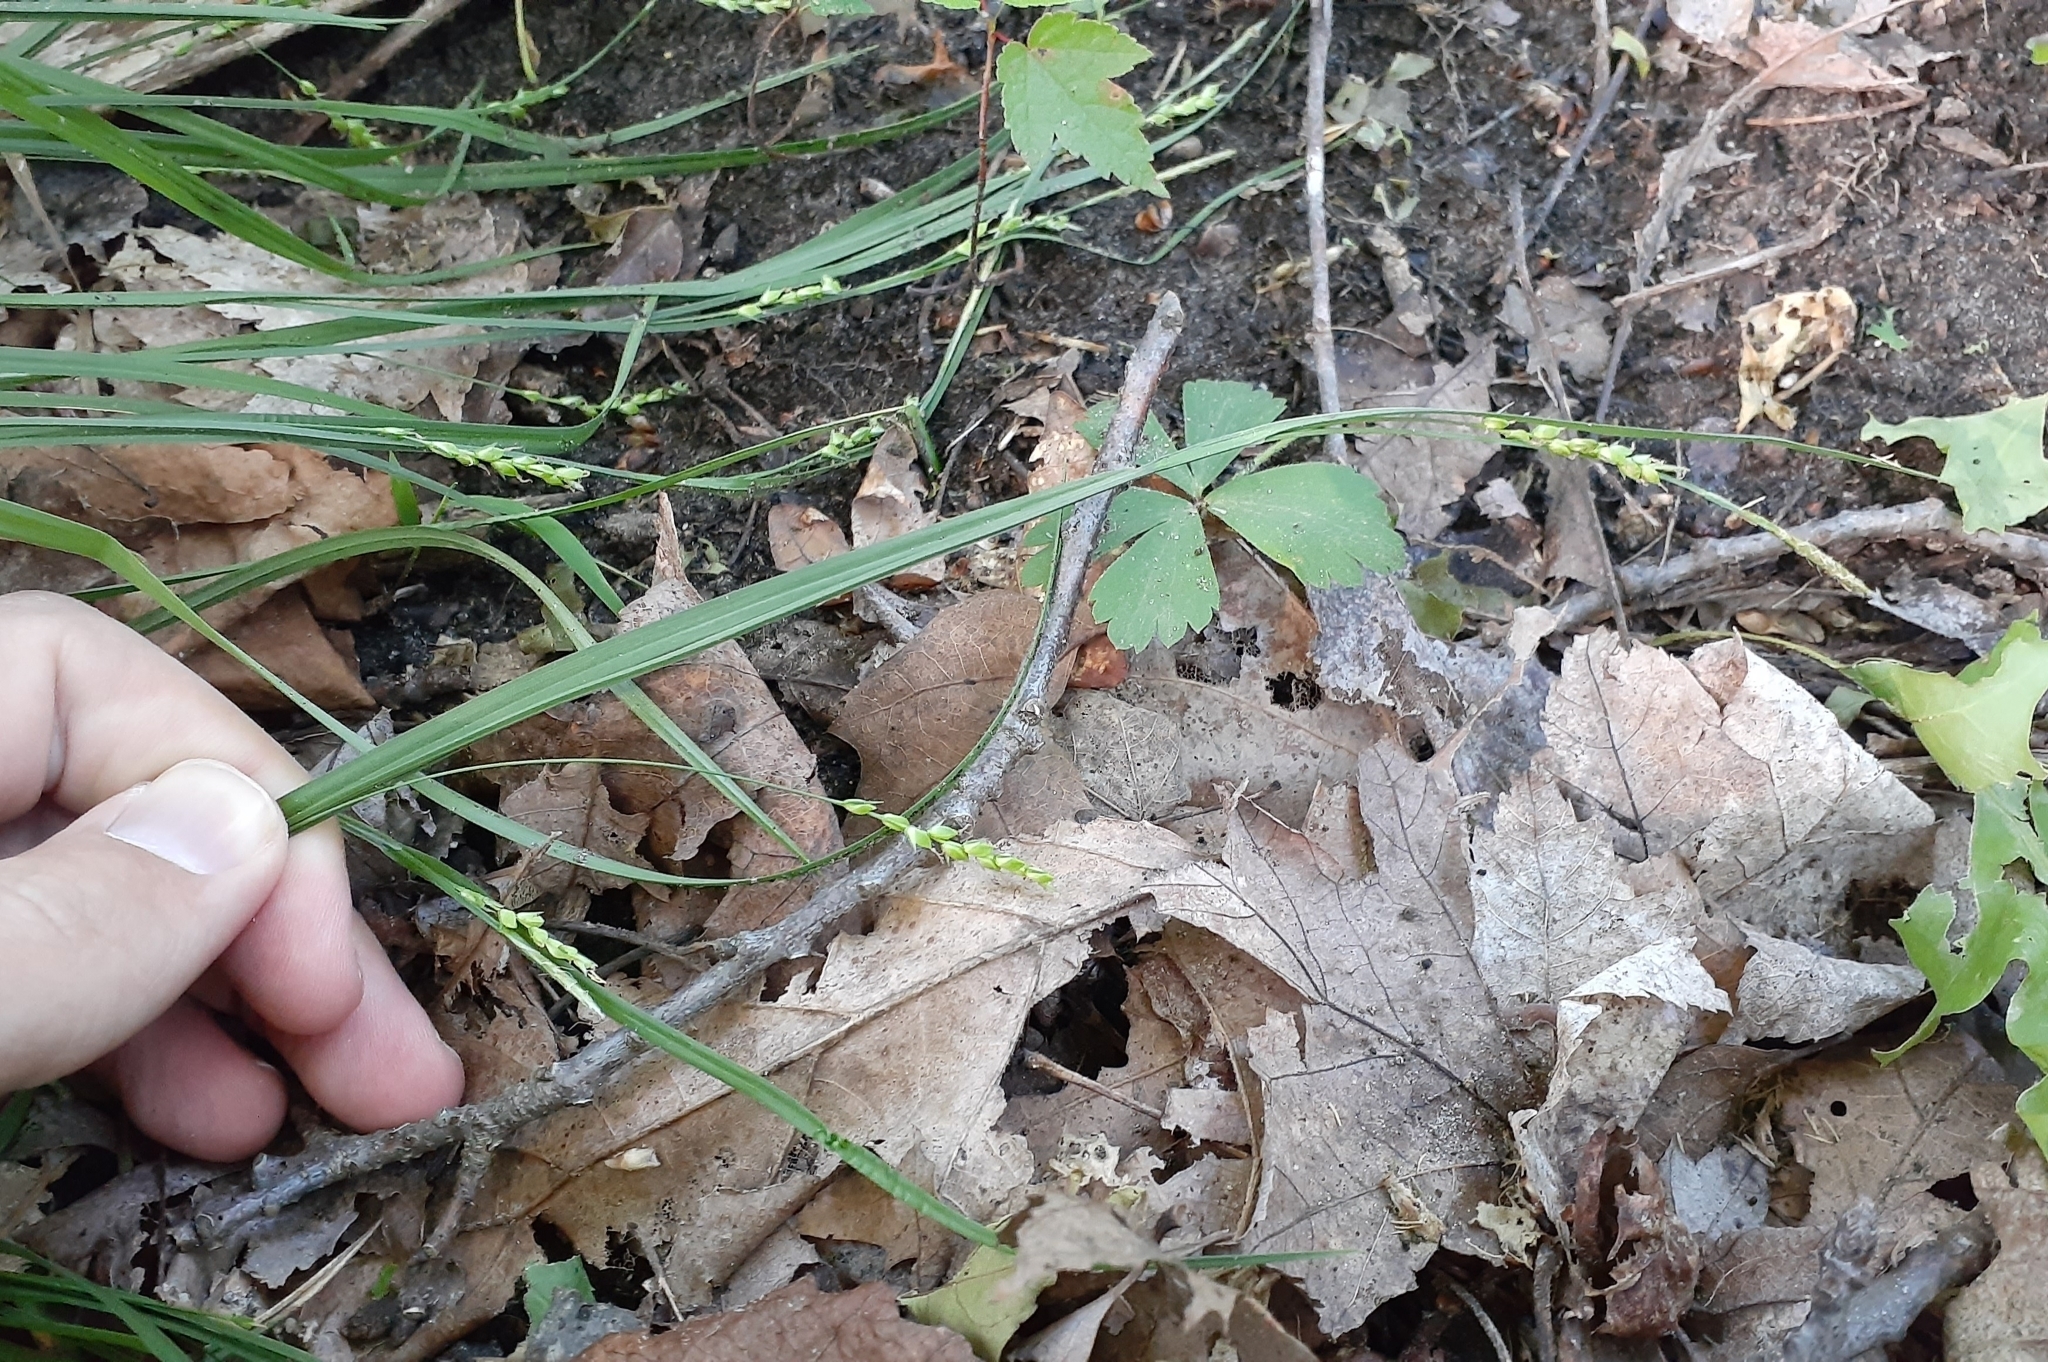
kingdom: Plantae
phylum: Tracheophyta
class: Liliopsida
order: Poales
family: Cyperaceae
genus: Carex
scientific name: Carex digitalis
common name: Slender wood sedge
